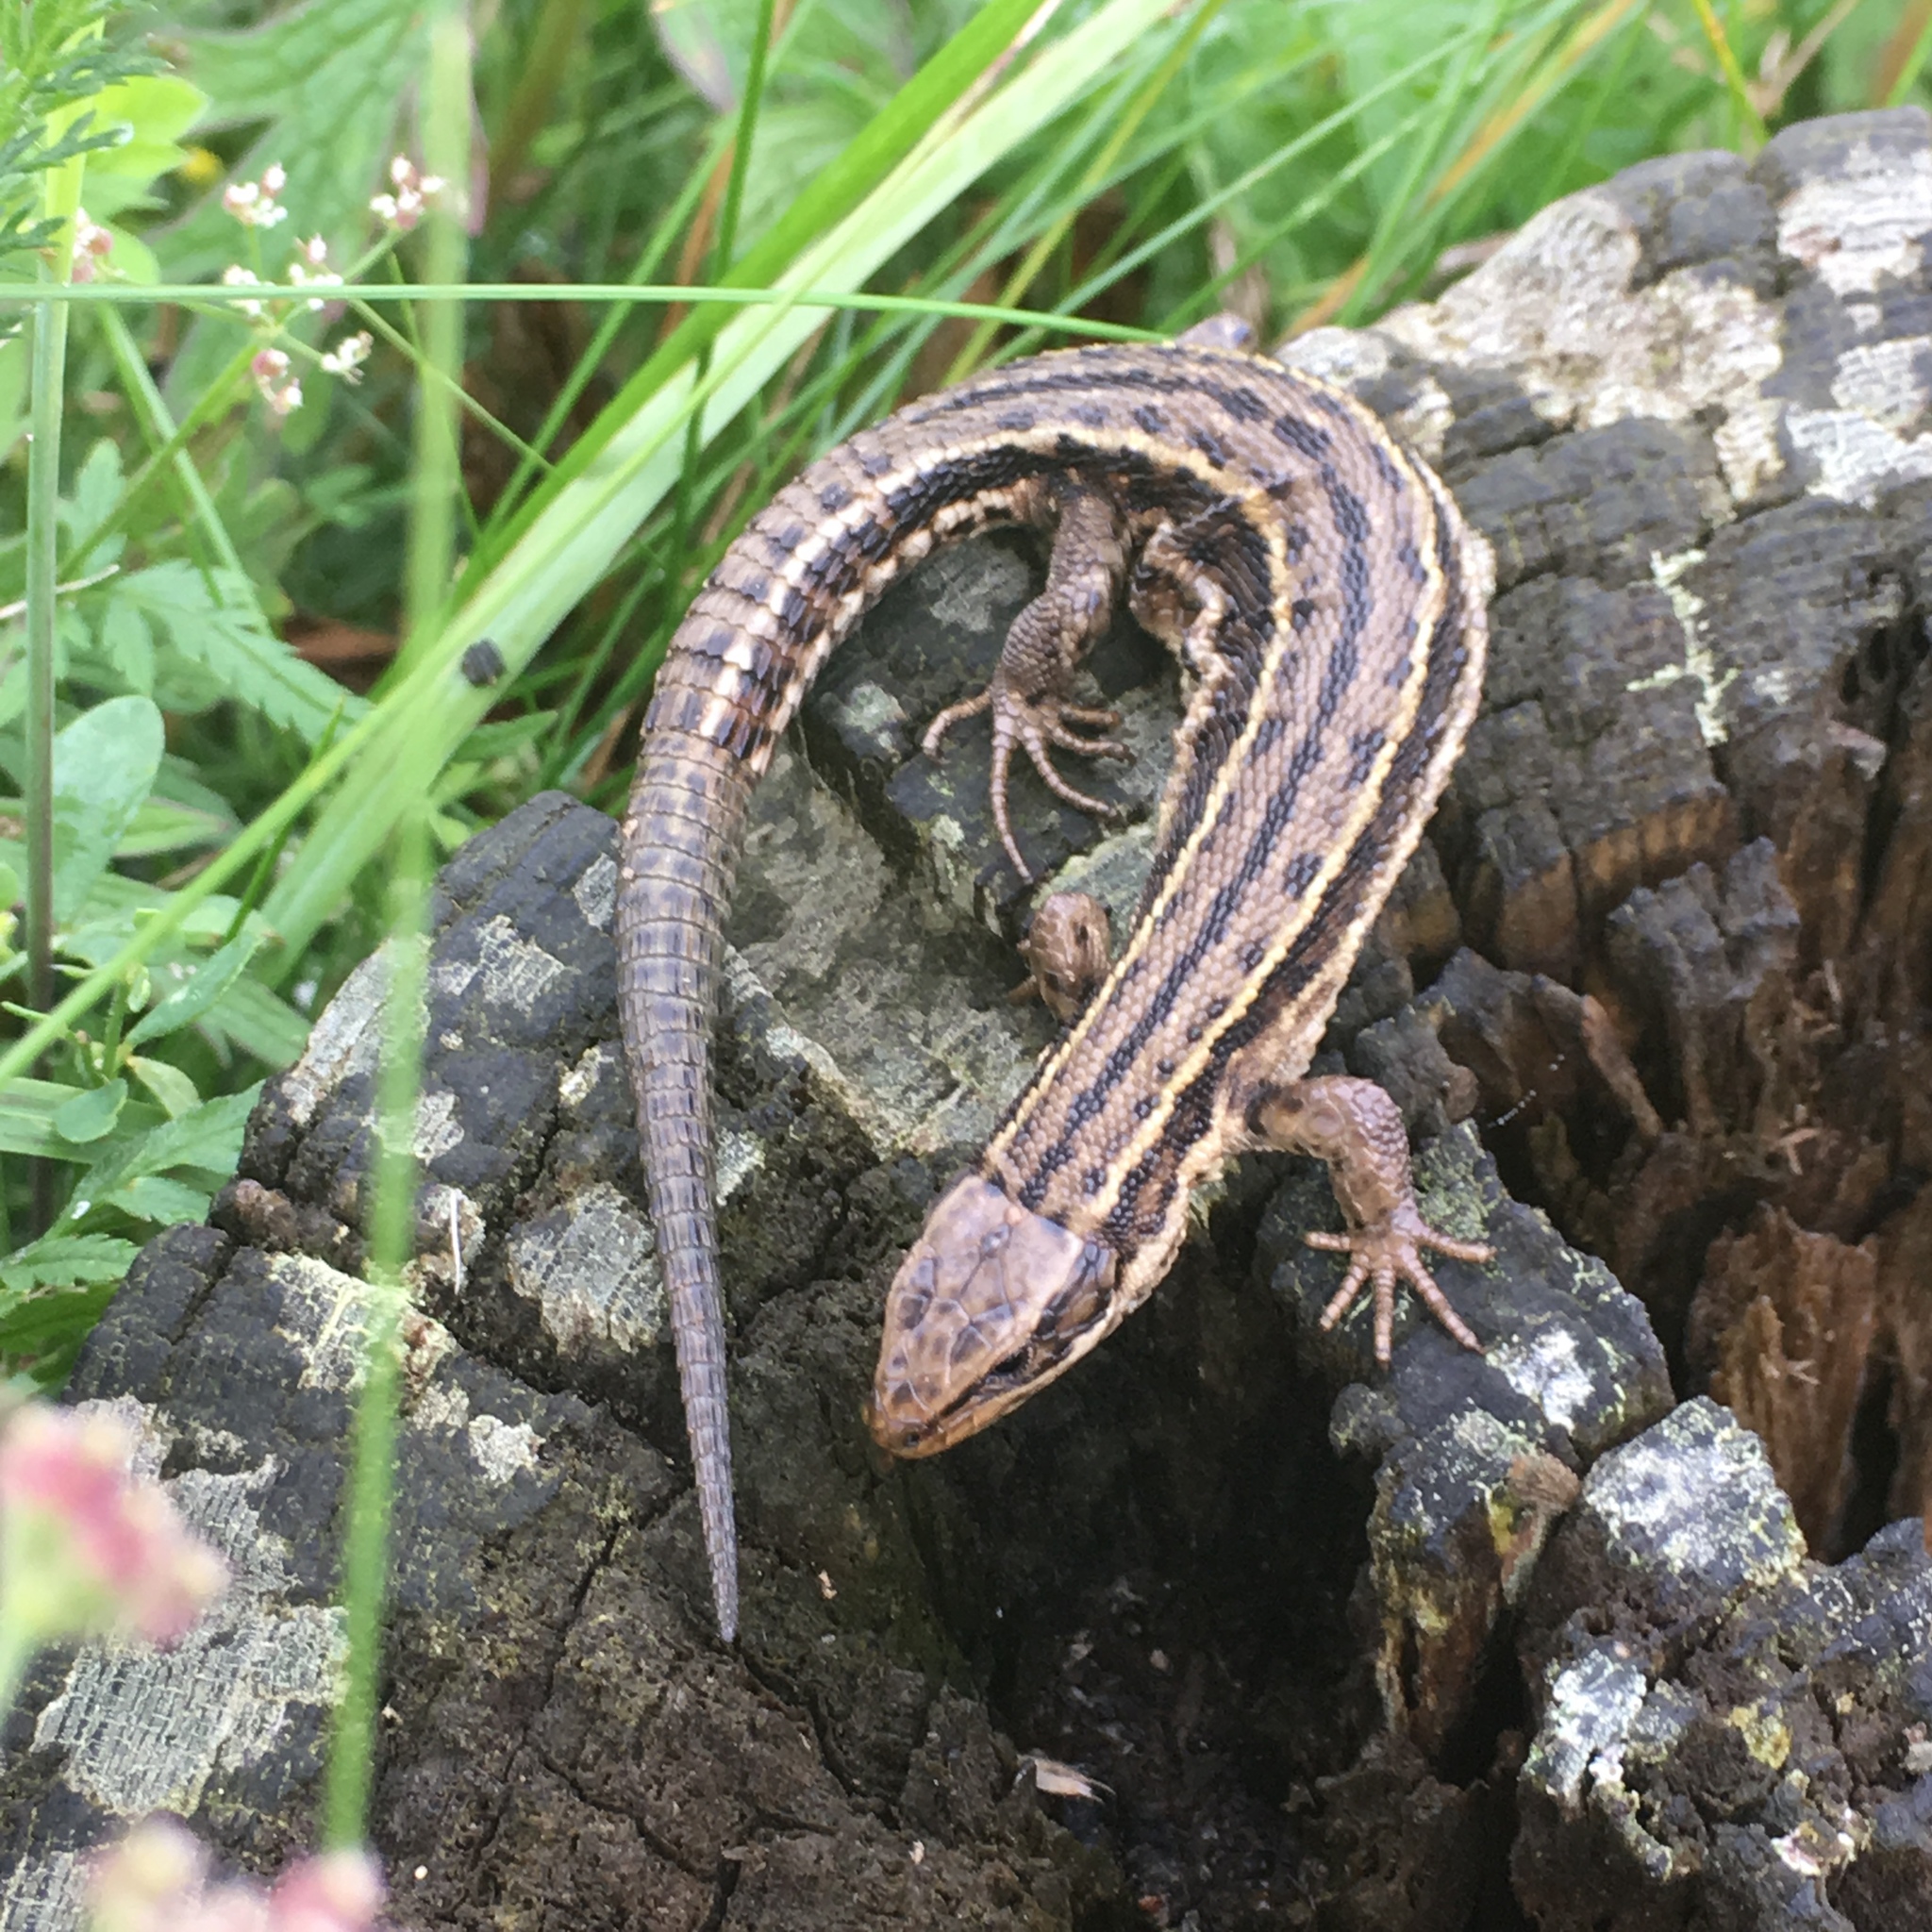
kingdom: Animalia
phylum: Chordata
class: Squamata
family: Lacertidae
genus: Zootoca
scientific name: Zootoca vivipara
